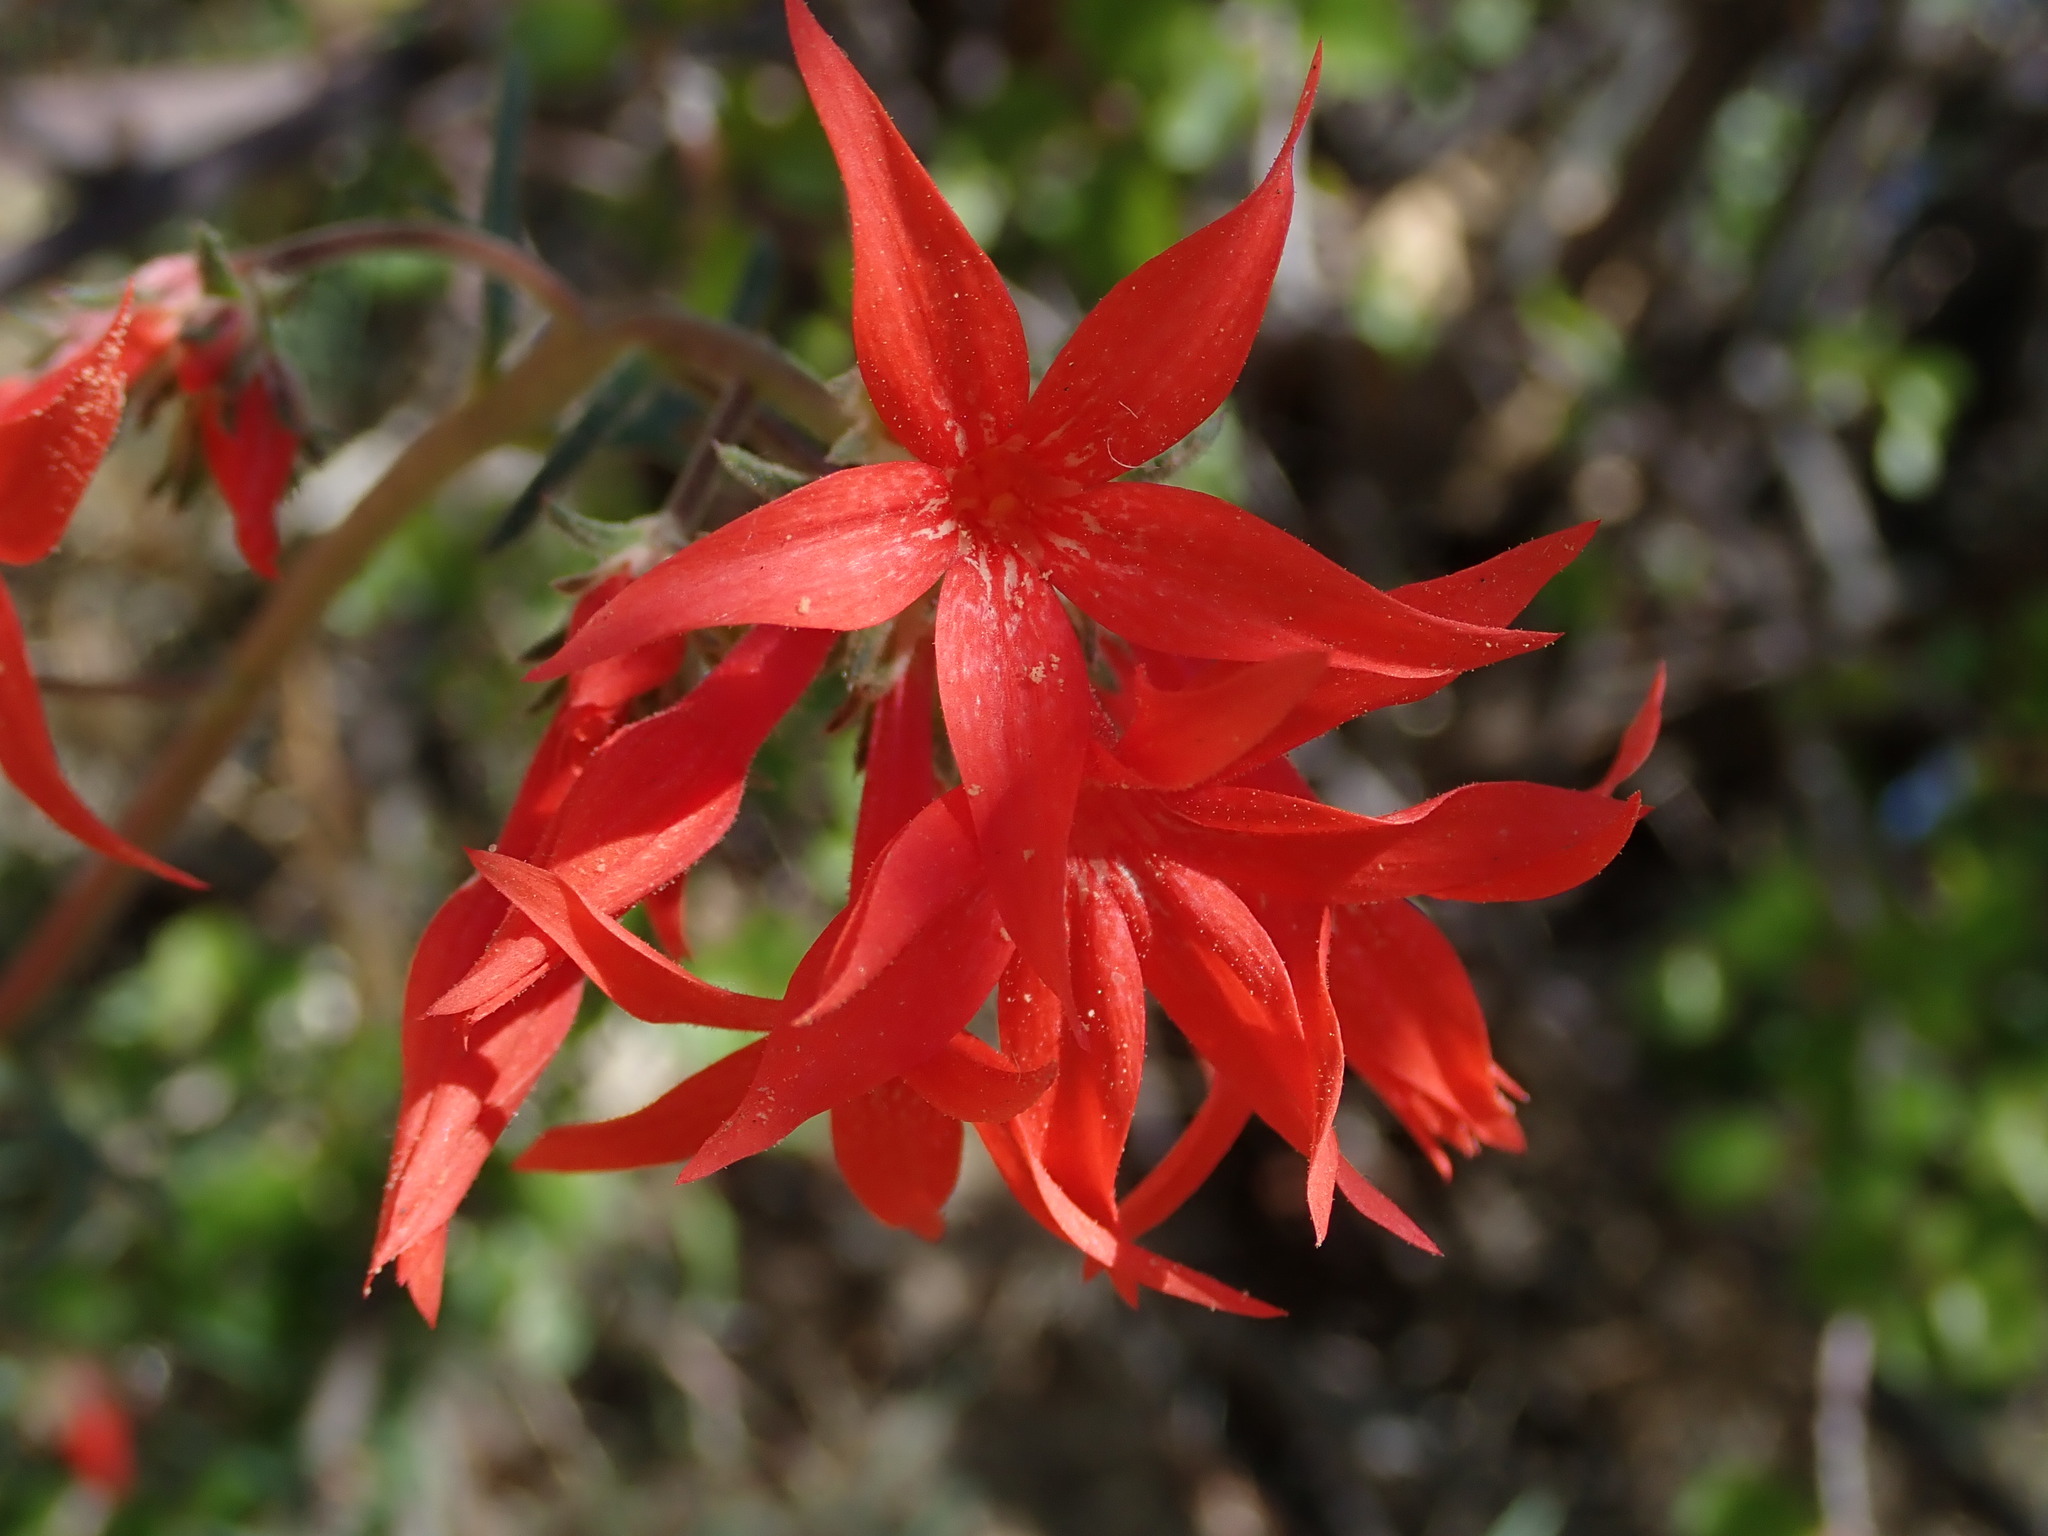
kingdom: Plantae
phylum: Tracheophyta
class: Magnoliopsida
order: Ericales
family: Polemoniaceae
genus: Ipomopsis
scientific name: Ipomopsis arizonica
